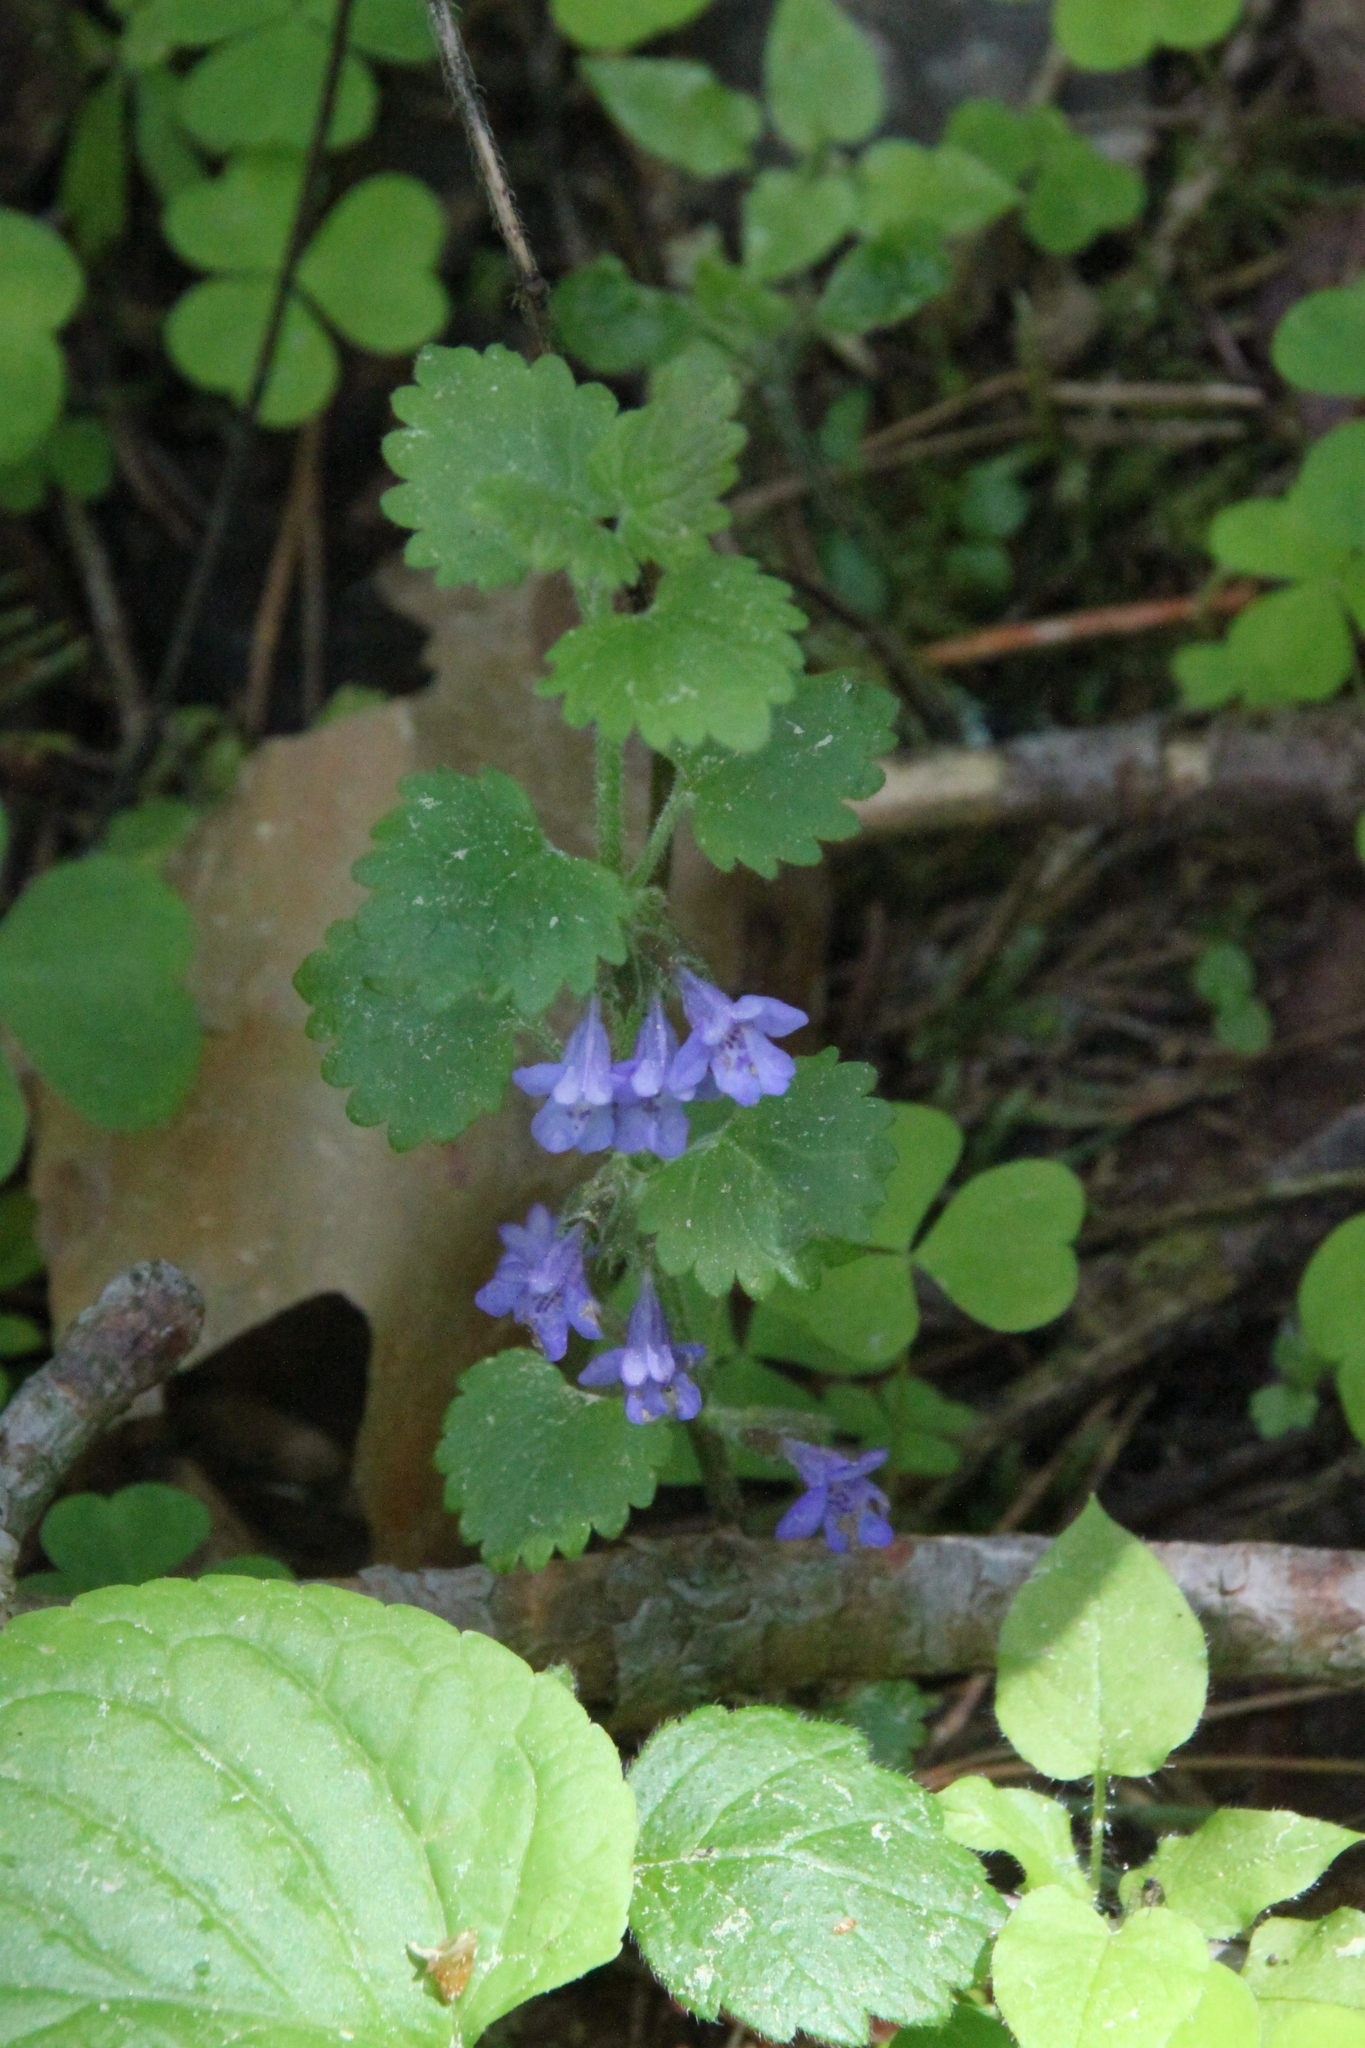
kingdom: Plantae
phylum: Tracheophyta
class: Magnoliopsida
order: Lamiales
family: Lamiaceae
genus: Glechoma
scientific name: Glechoma hederacea
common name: Ground ivy
